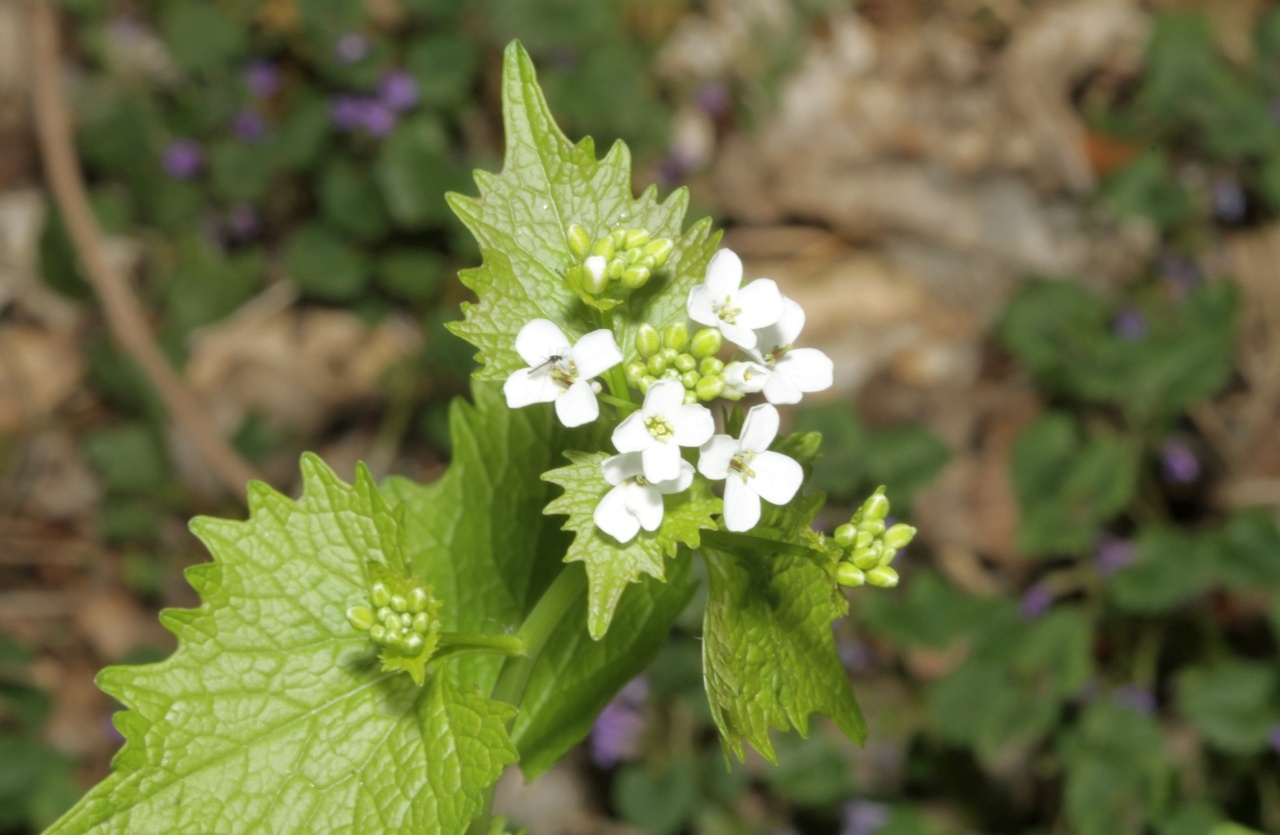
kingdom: Plantae
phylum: Tracheophyta
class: Magnoliopsida
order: Brassicales
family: Brassicaceae
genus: Alliaria
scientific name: Alliaria petiolata
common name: Garlic mustard
